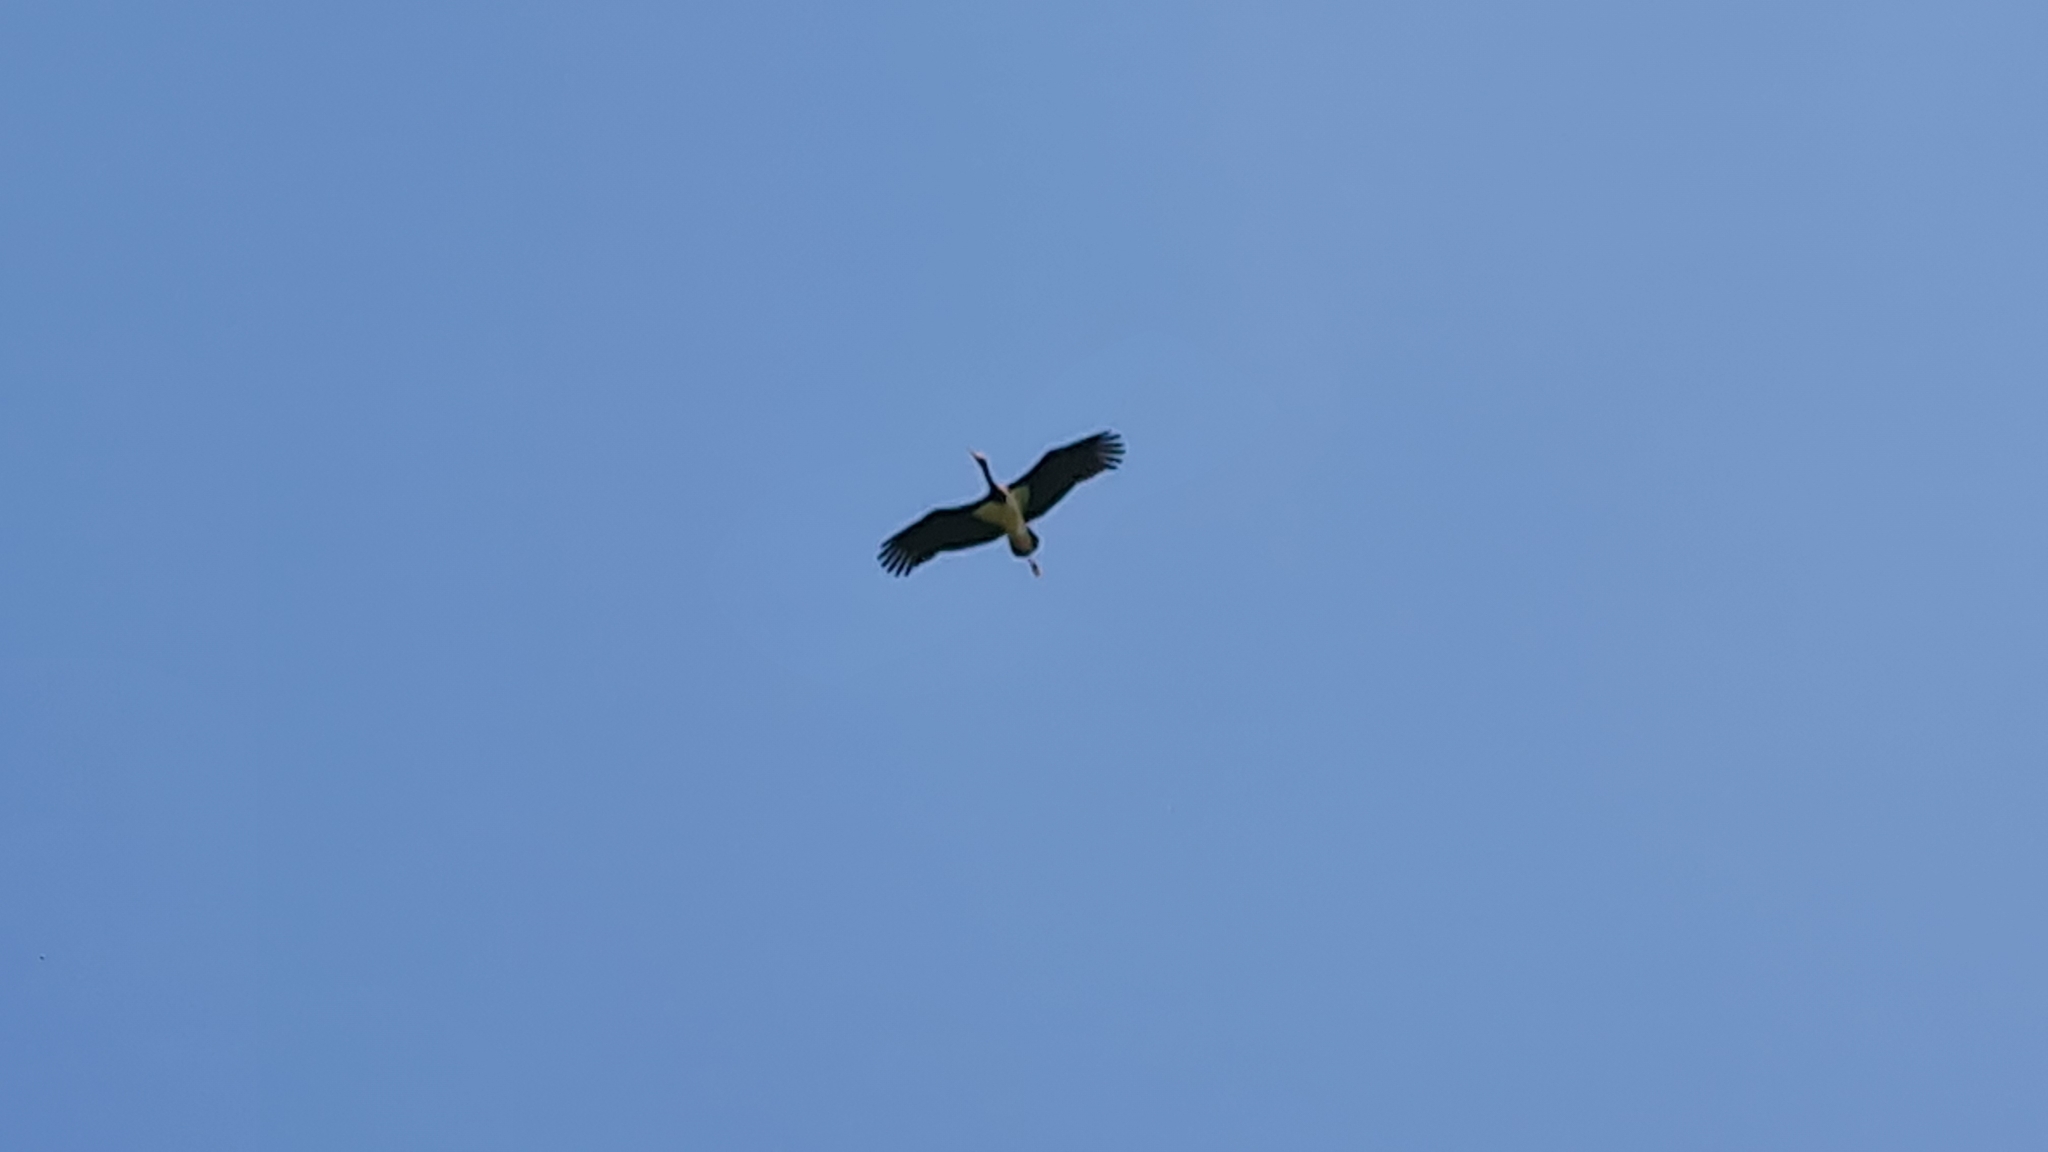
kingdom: Animalia
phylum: Chordata
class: Aves
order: Ciconiiformes
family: Ciconiidae
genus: Ciconia
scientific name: Ciconia nigra
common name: Black stork
